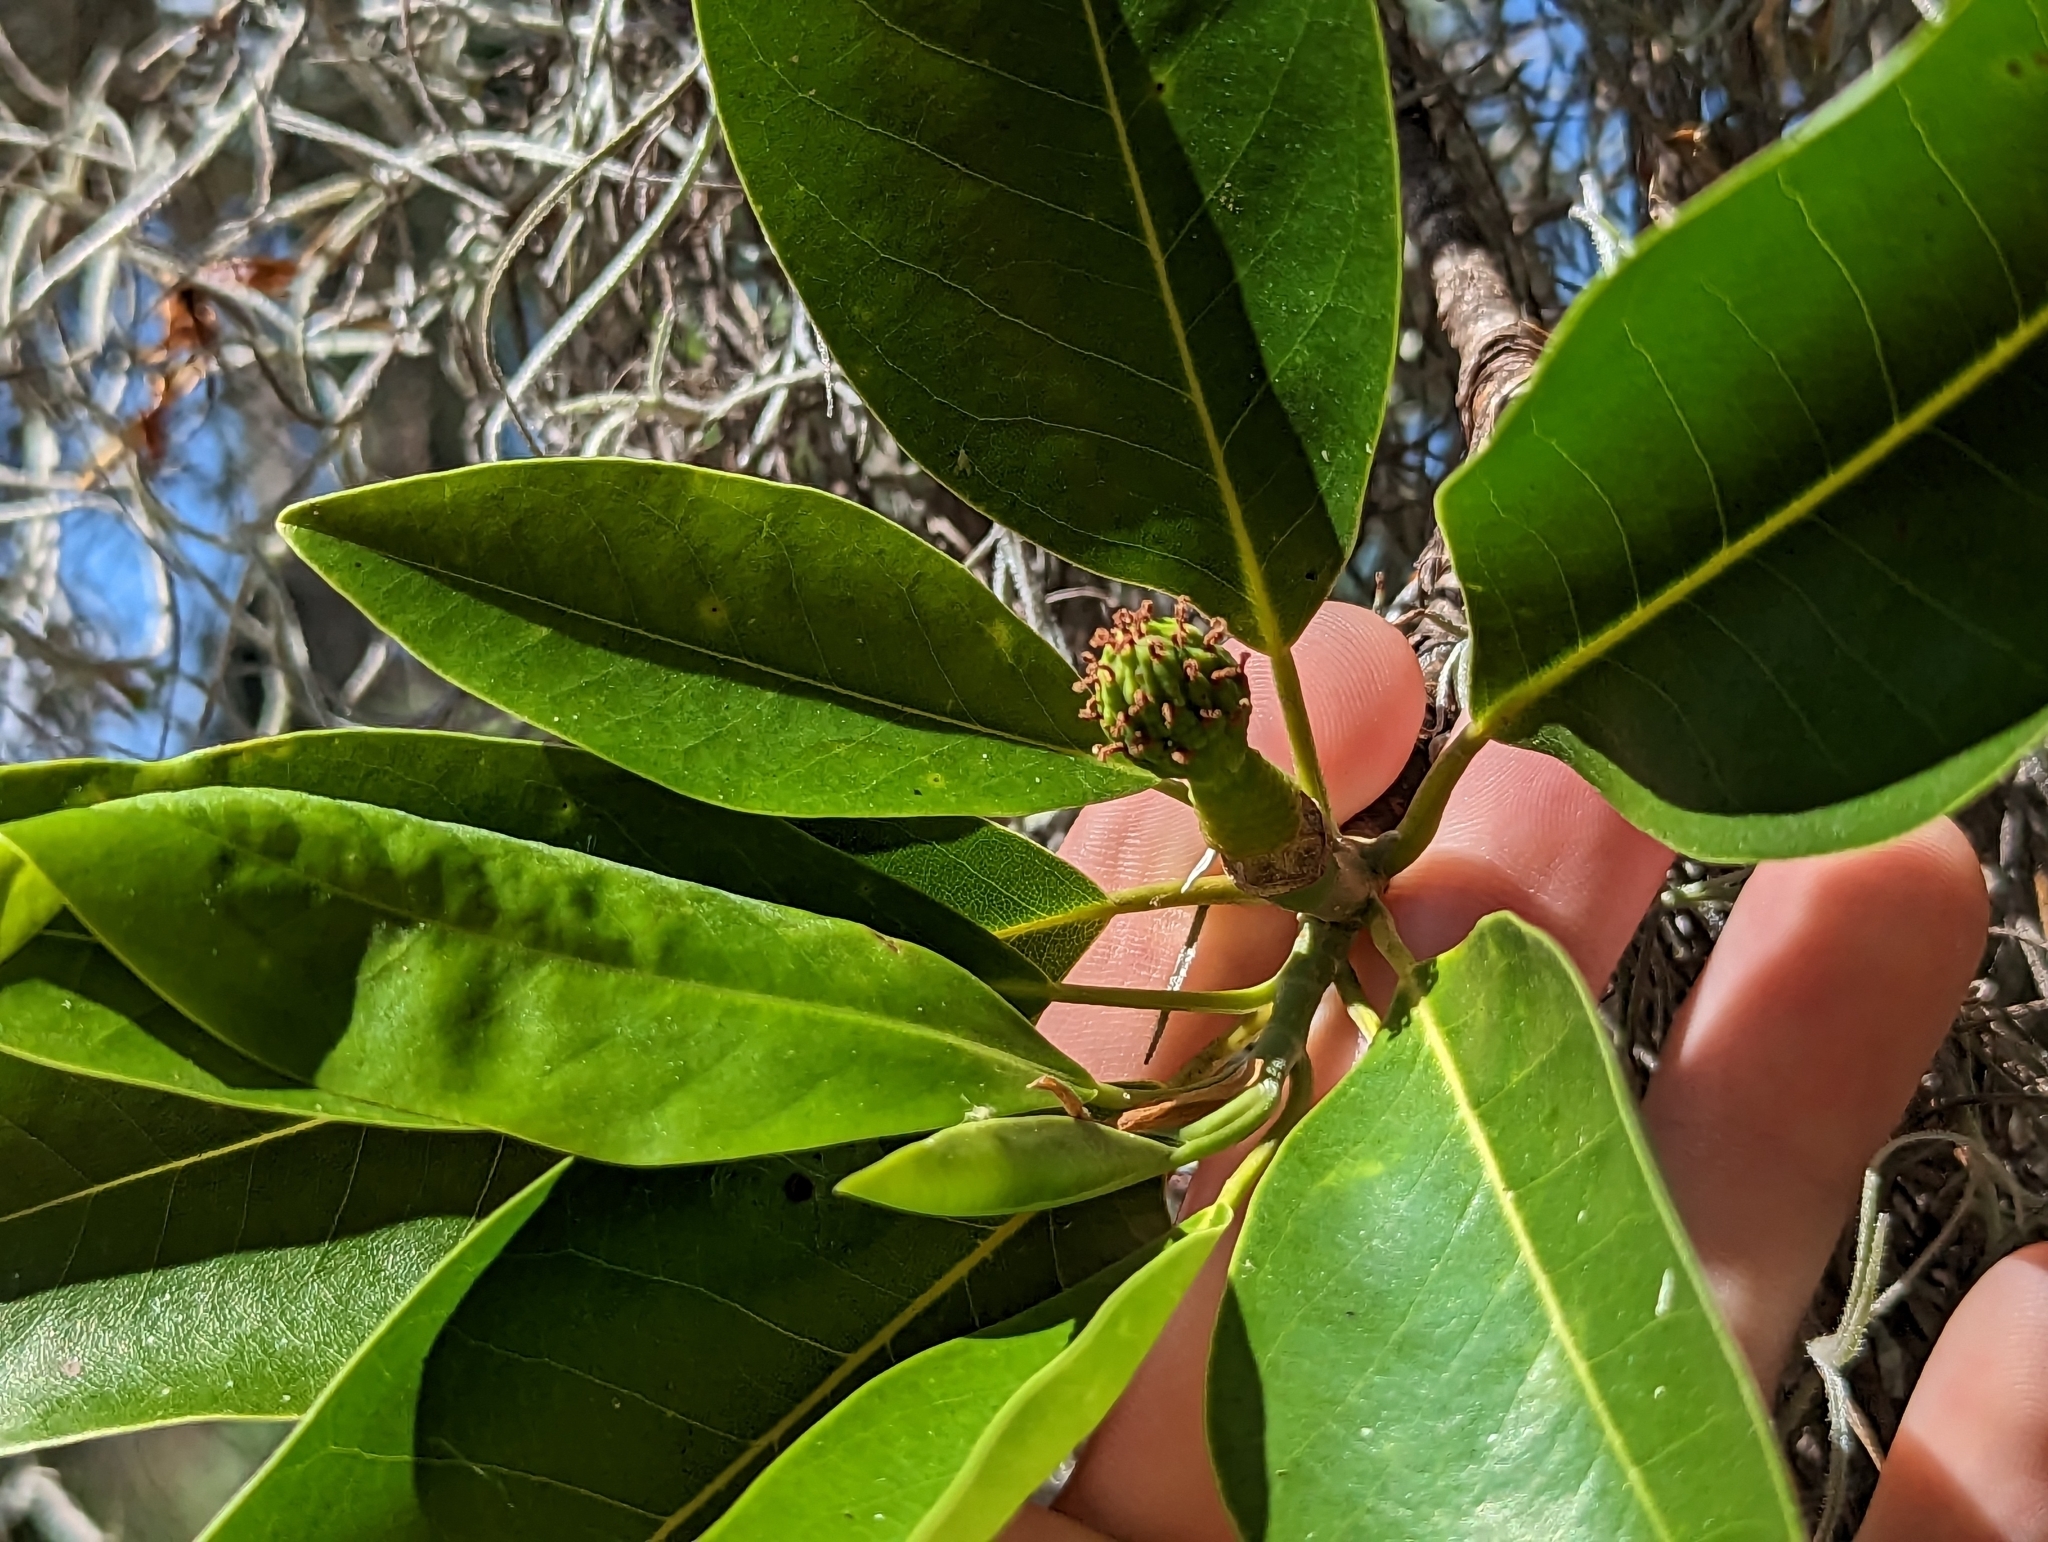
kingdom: Plantae
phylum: Tracheophyta
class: Magnoliopsida
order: Magnoliales
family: Magnoliaceae
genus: Magnolia
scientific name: Magnolia virginiana
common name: Swamp bay
